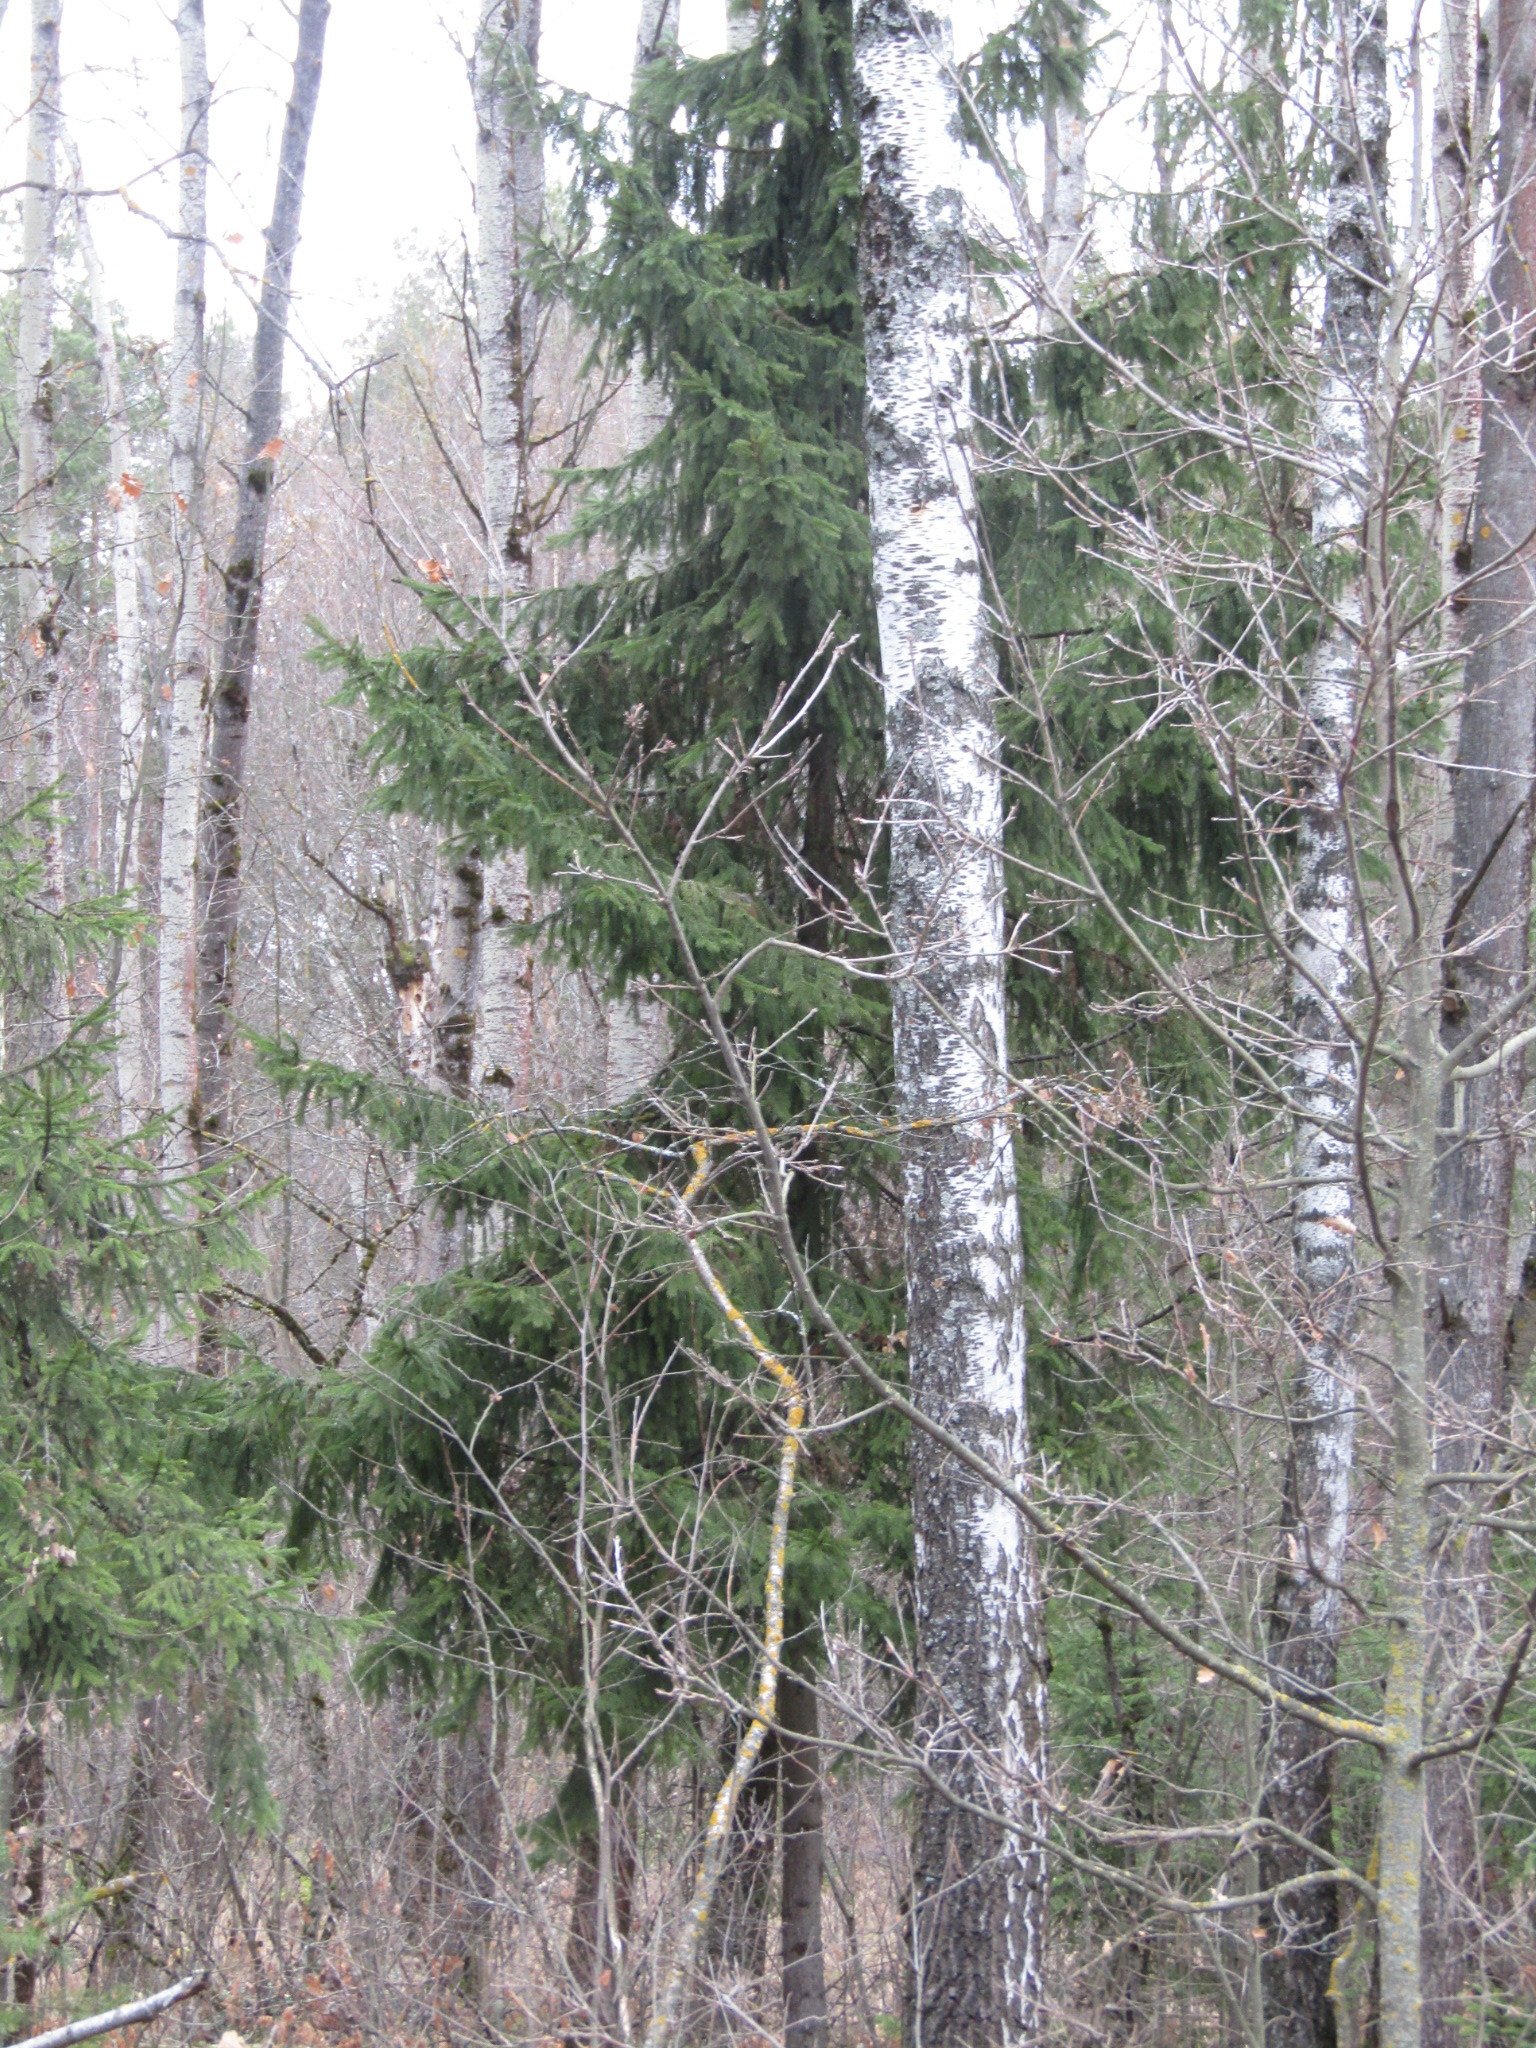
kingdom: Plantae
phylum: Tracheophyta
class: Pinopsida
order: Pinales
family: Pinaceae
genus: Picea
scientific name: Picea abies
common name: Norway spruce
